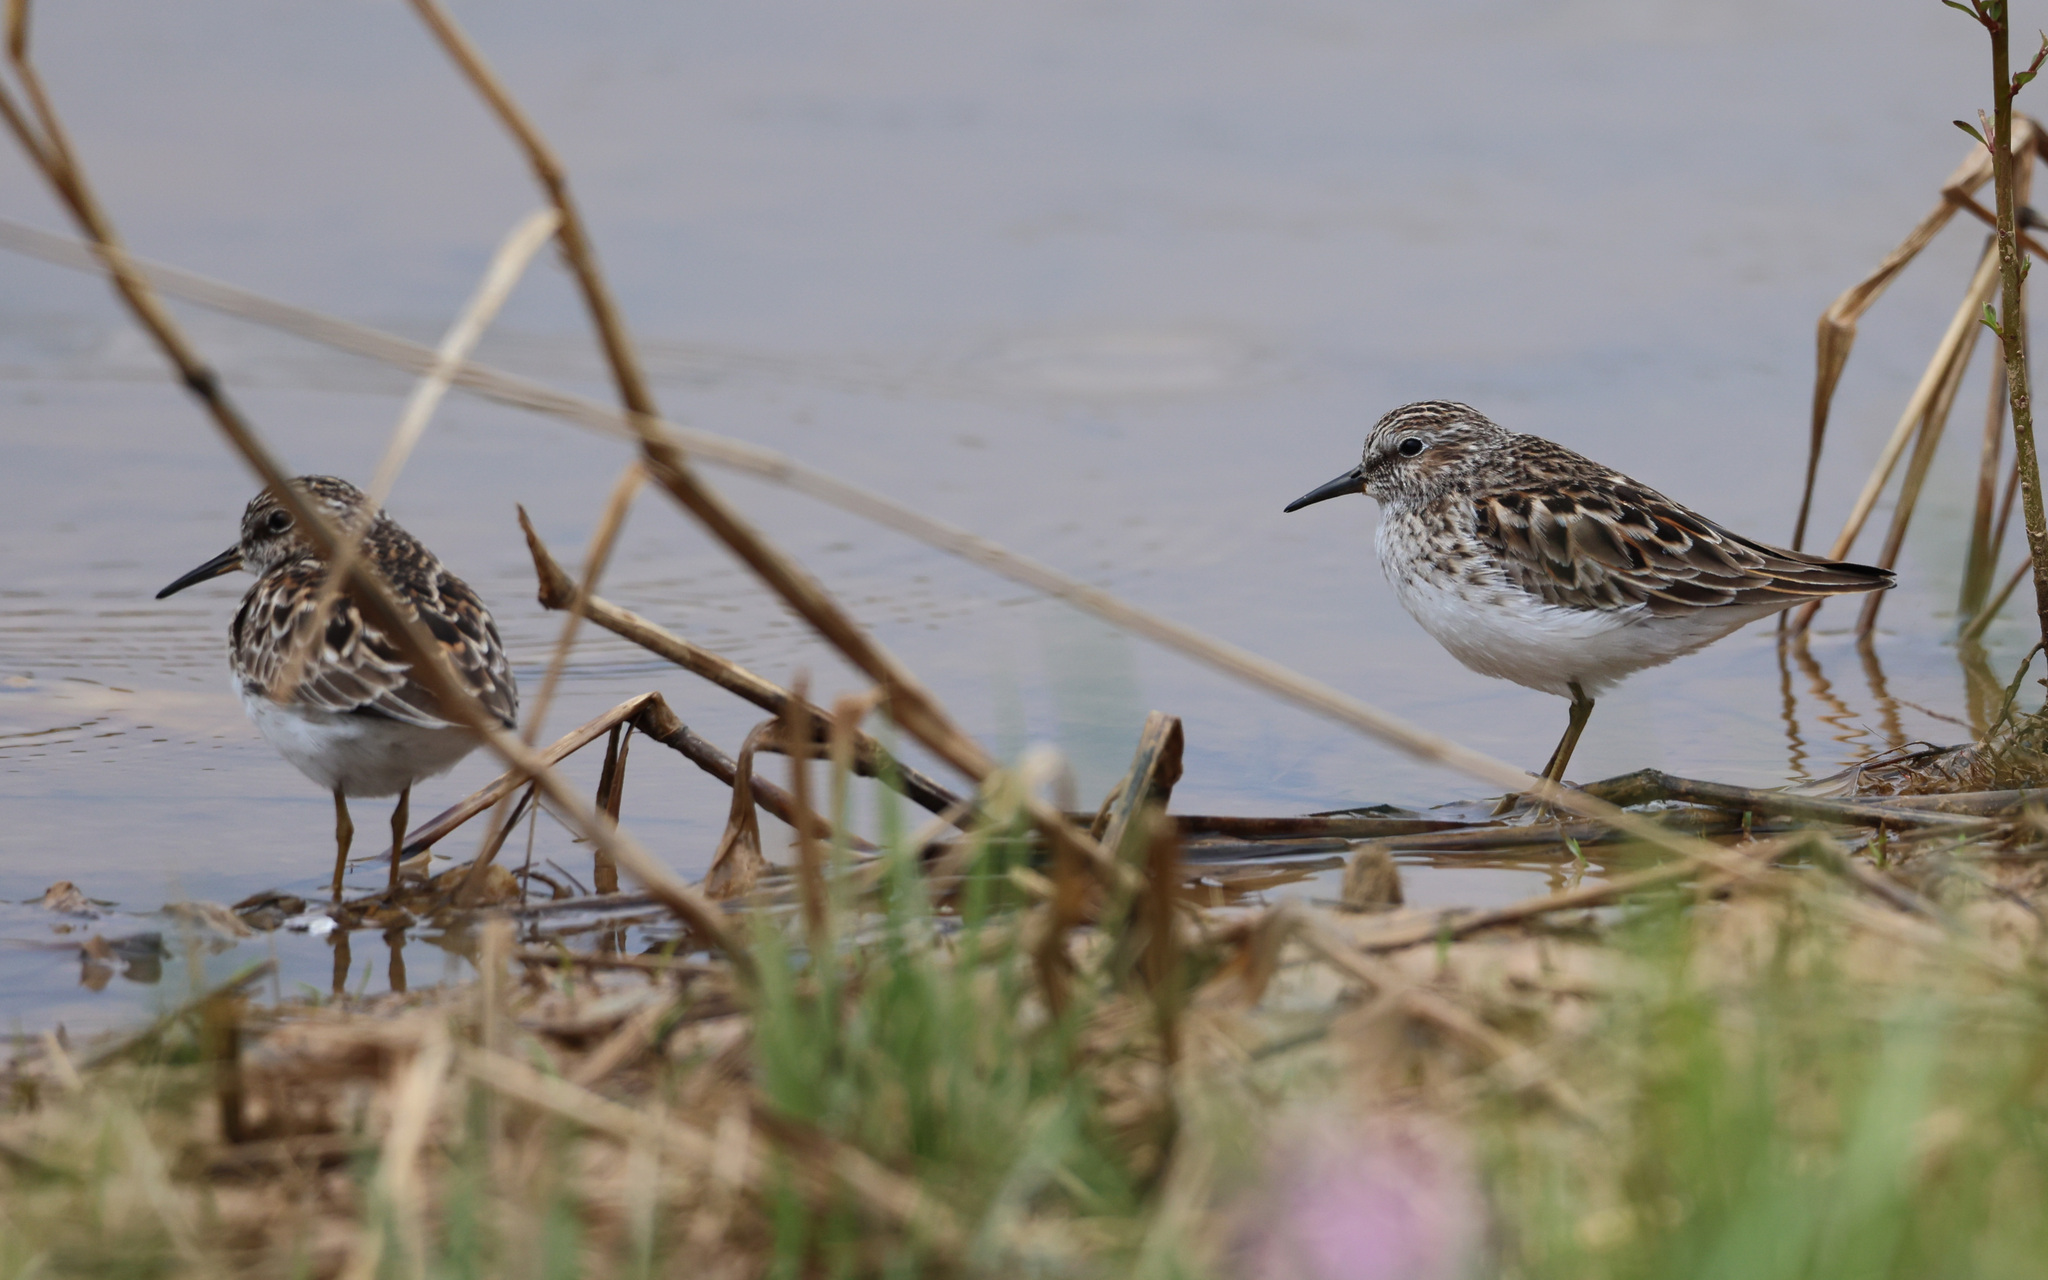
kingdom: Animalia
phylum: Chordata
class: Aves
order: Charadriiformes
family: Scolopacidae
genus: Calidris
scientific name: Calidris minutilla
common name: Least sandpiper
